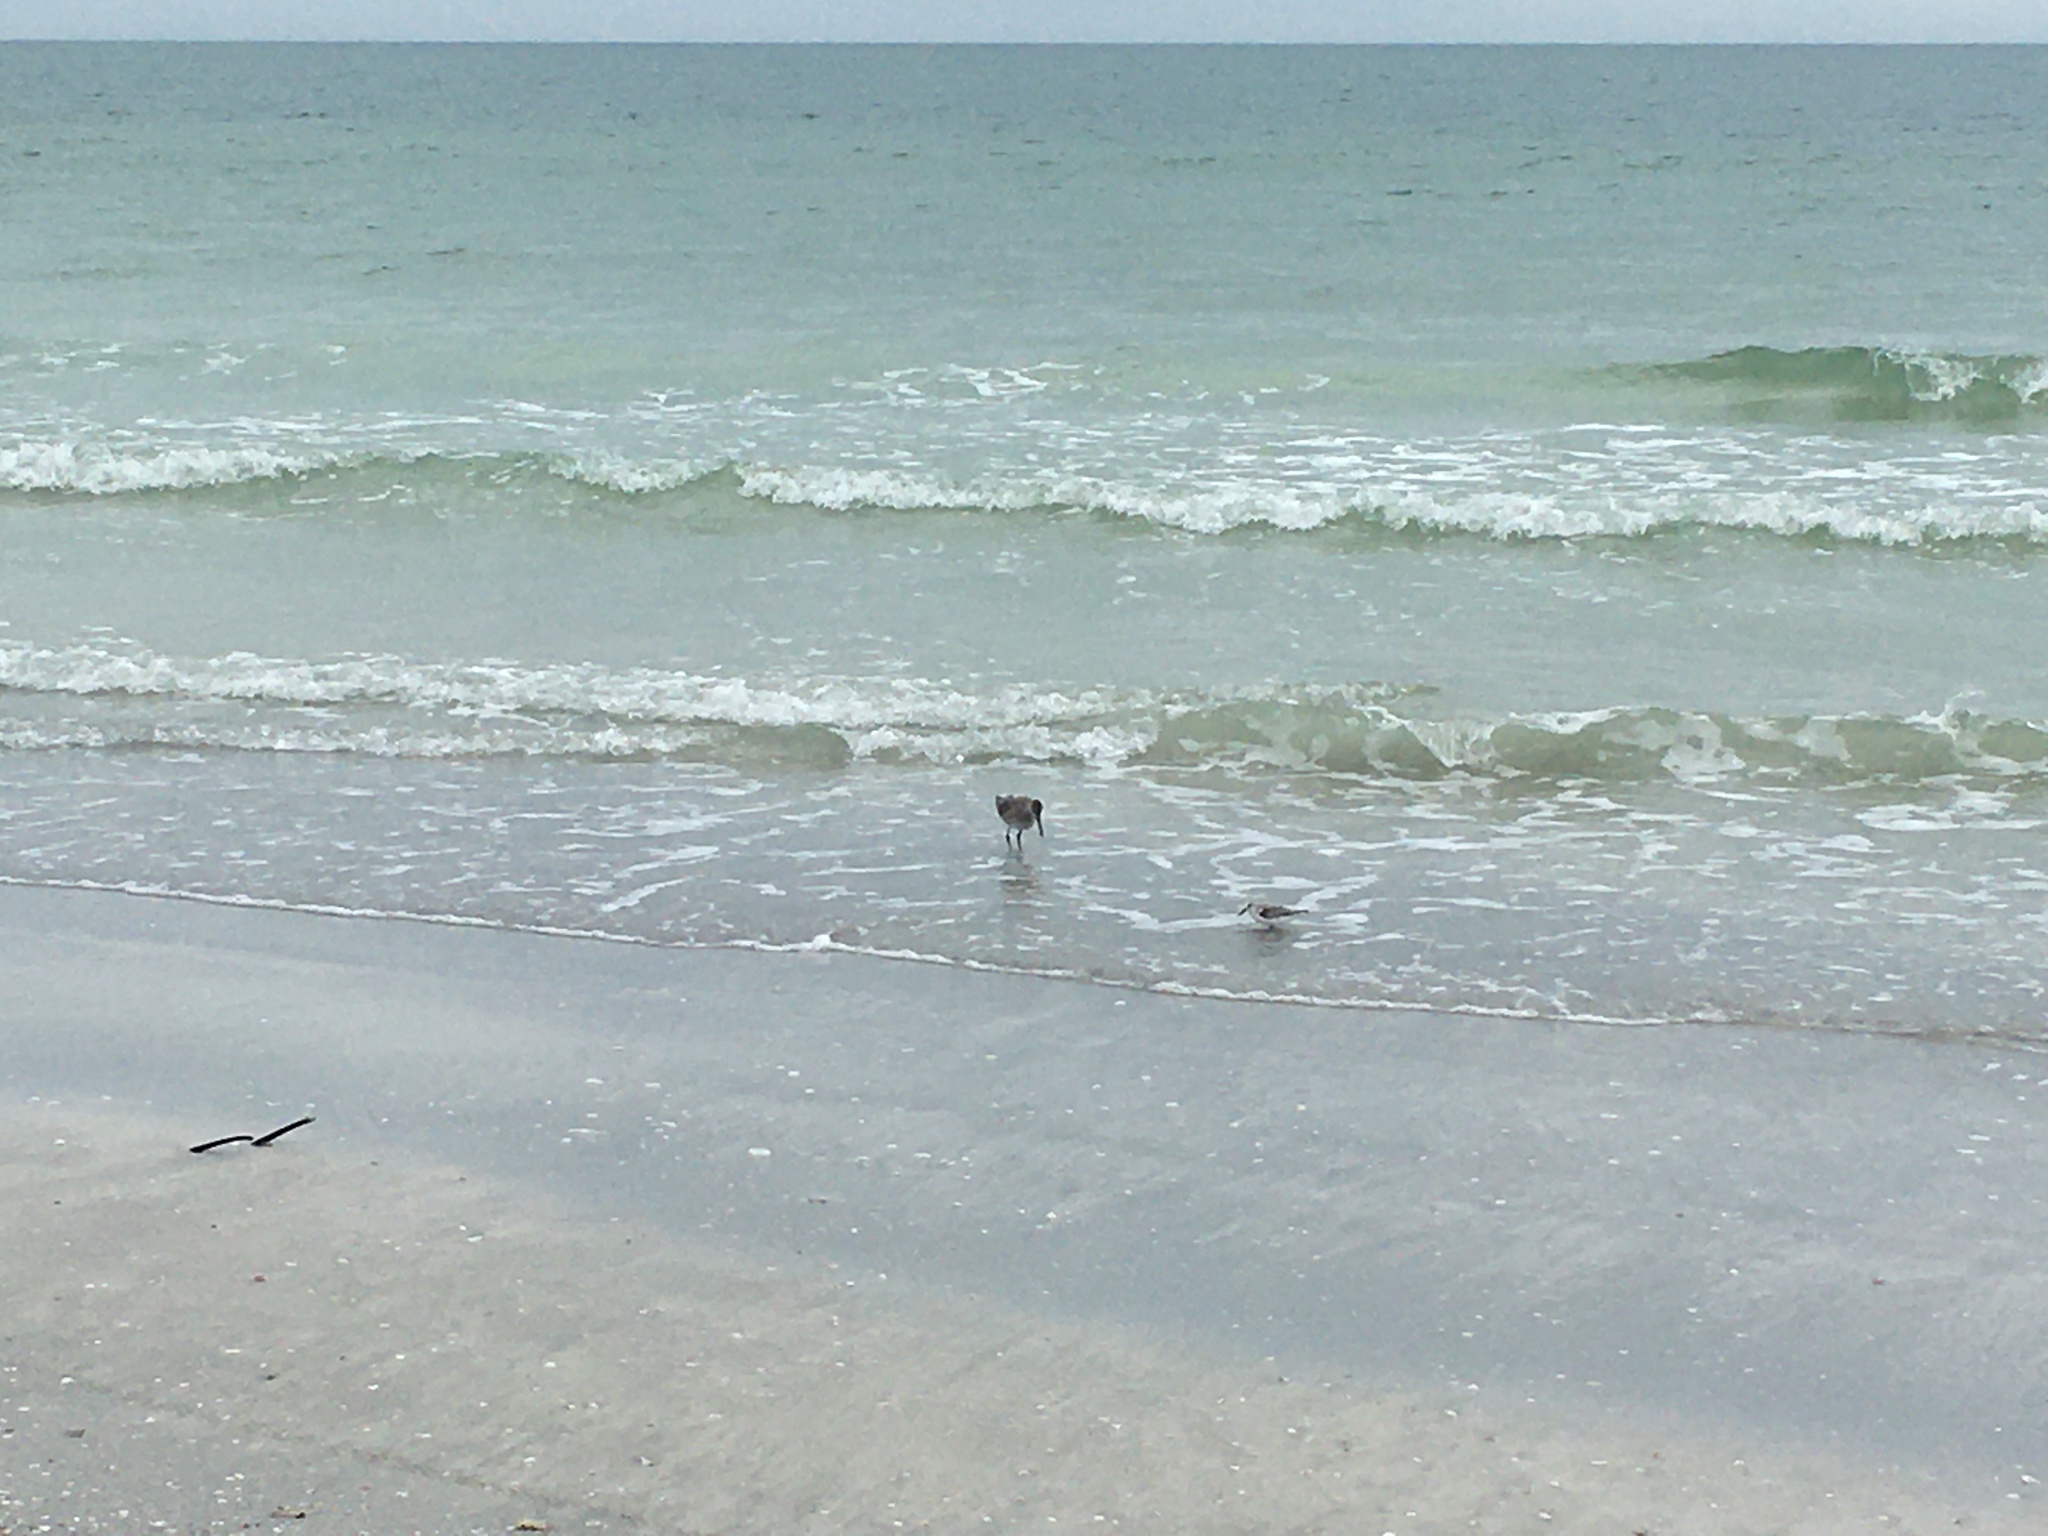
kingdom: Animalia
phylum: Chordata
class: Aves
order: Charadriiformes
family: Scolopacidae
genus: Tringa
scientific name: Tringa semipalmata
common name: Willet
